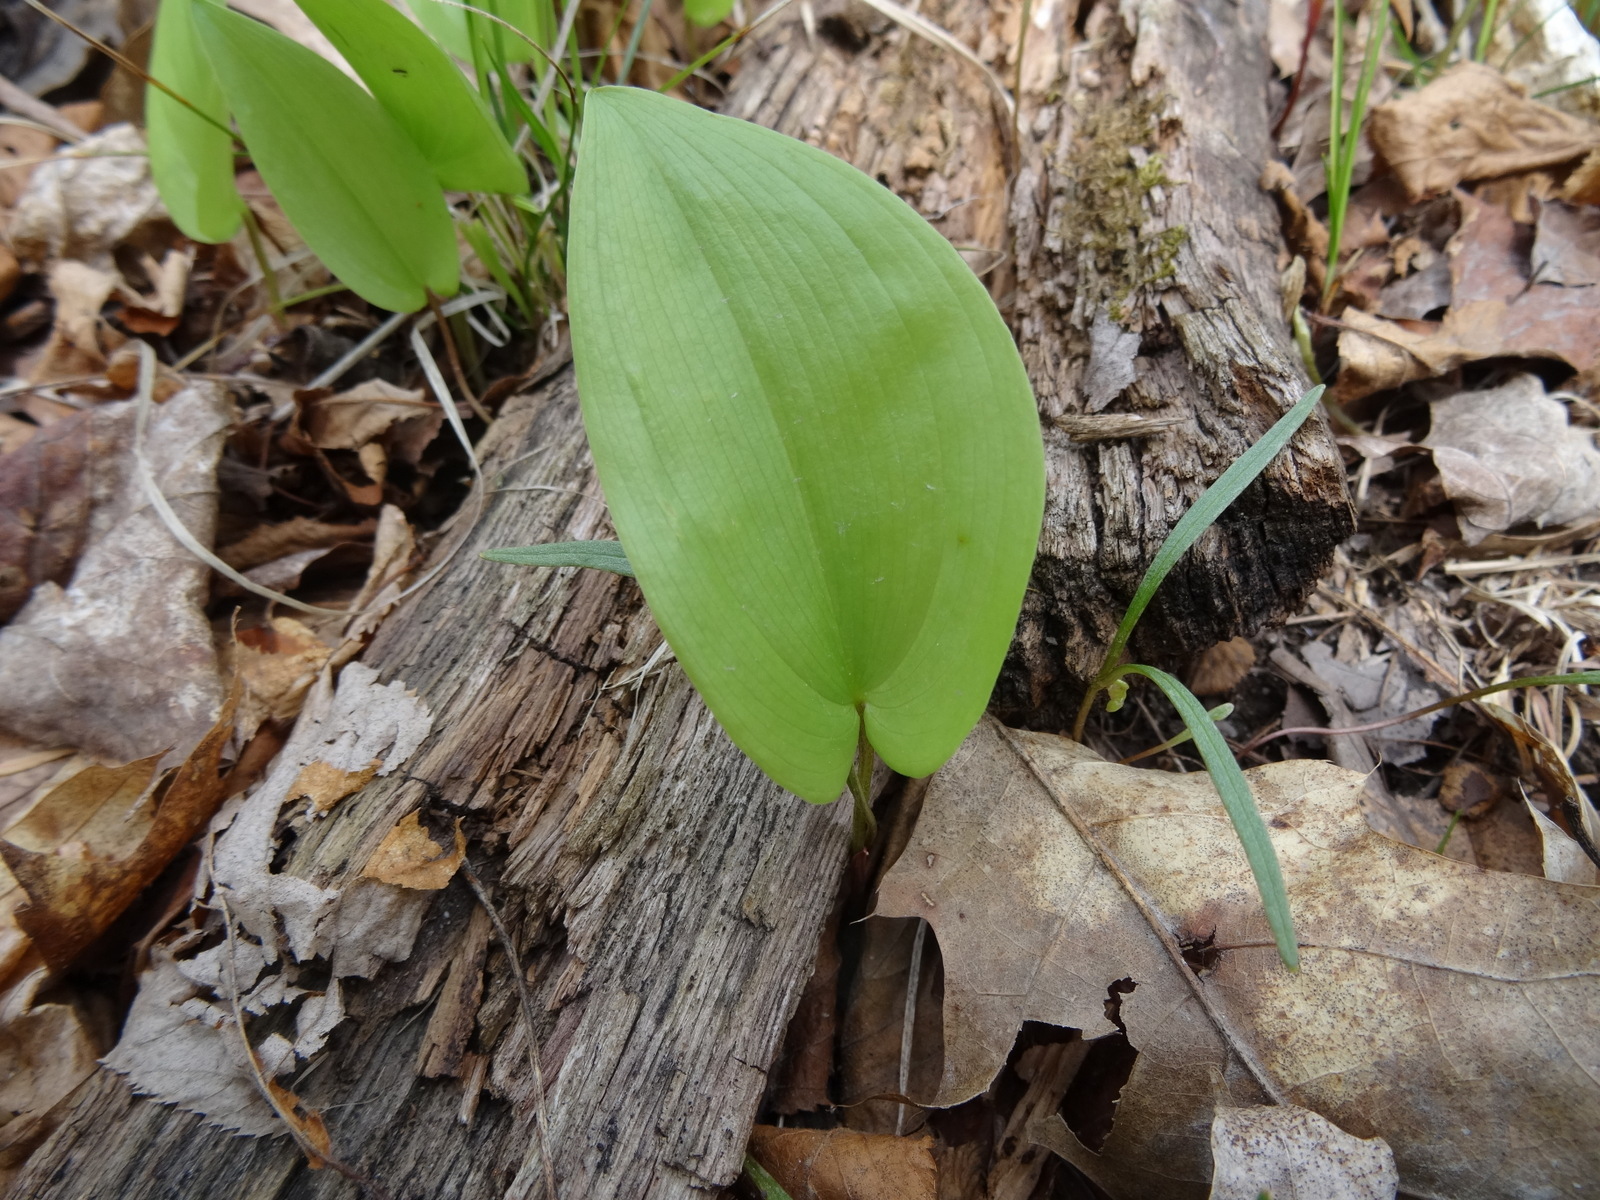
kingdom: Plantae
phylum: Tracheophyta
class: Liliopsida
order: Asparagales
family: Asparagaceae
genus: Maianthemum
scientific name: Maianthemum canadense
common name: False lily-of-the-valley
